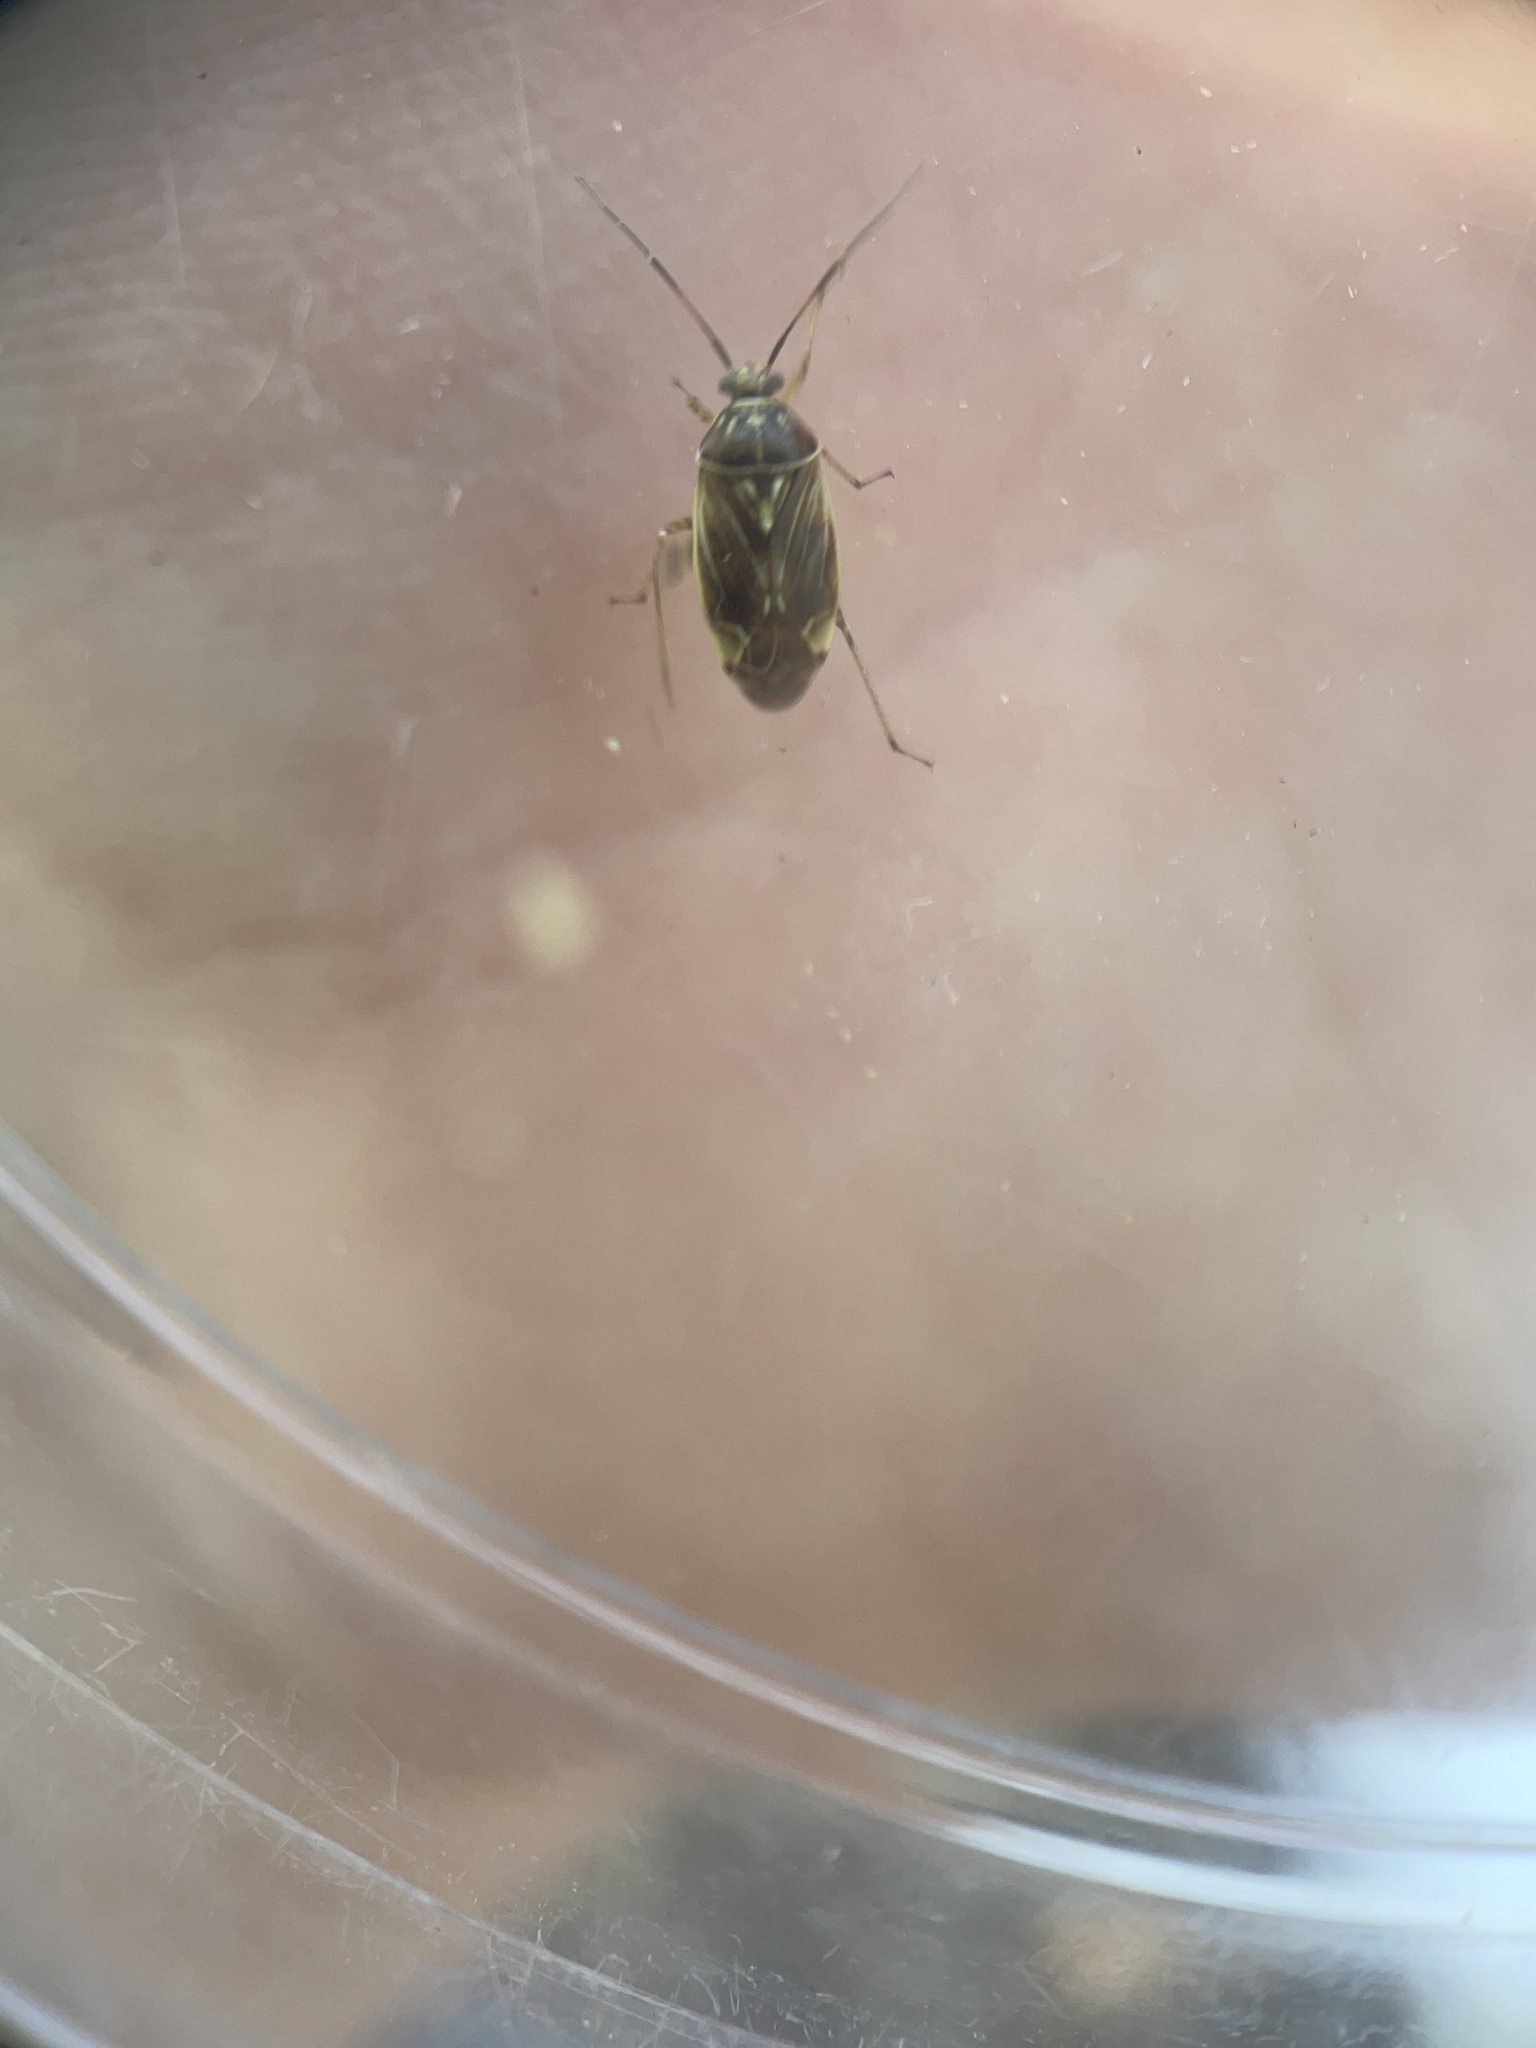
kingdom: Animalia
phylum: Arthropoda
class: Insecta
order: Hemiptera
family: Miridae
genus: Lygus
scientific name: Lygus lineolaris
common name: North american tarnished plant bug
